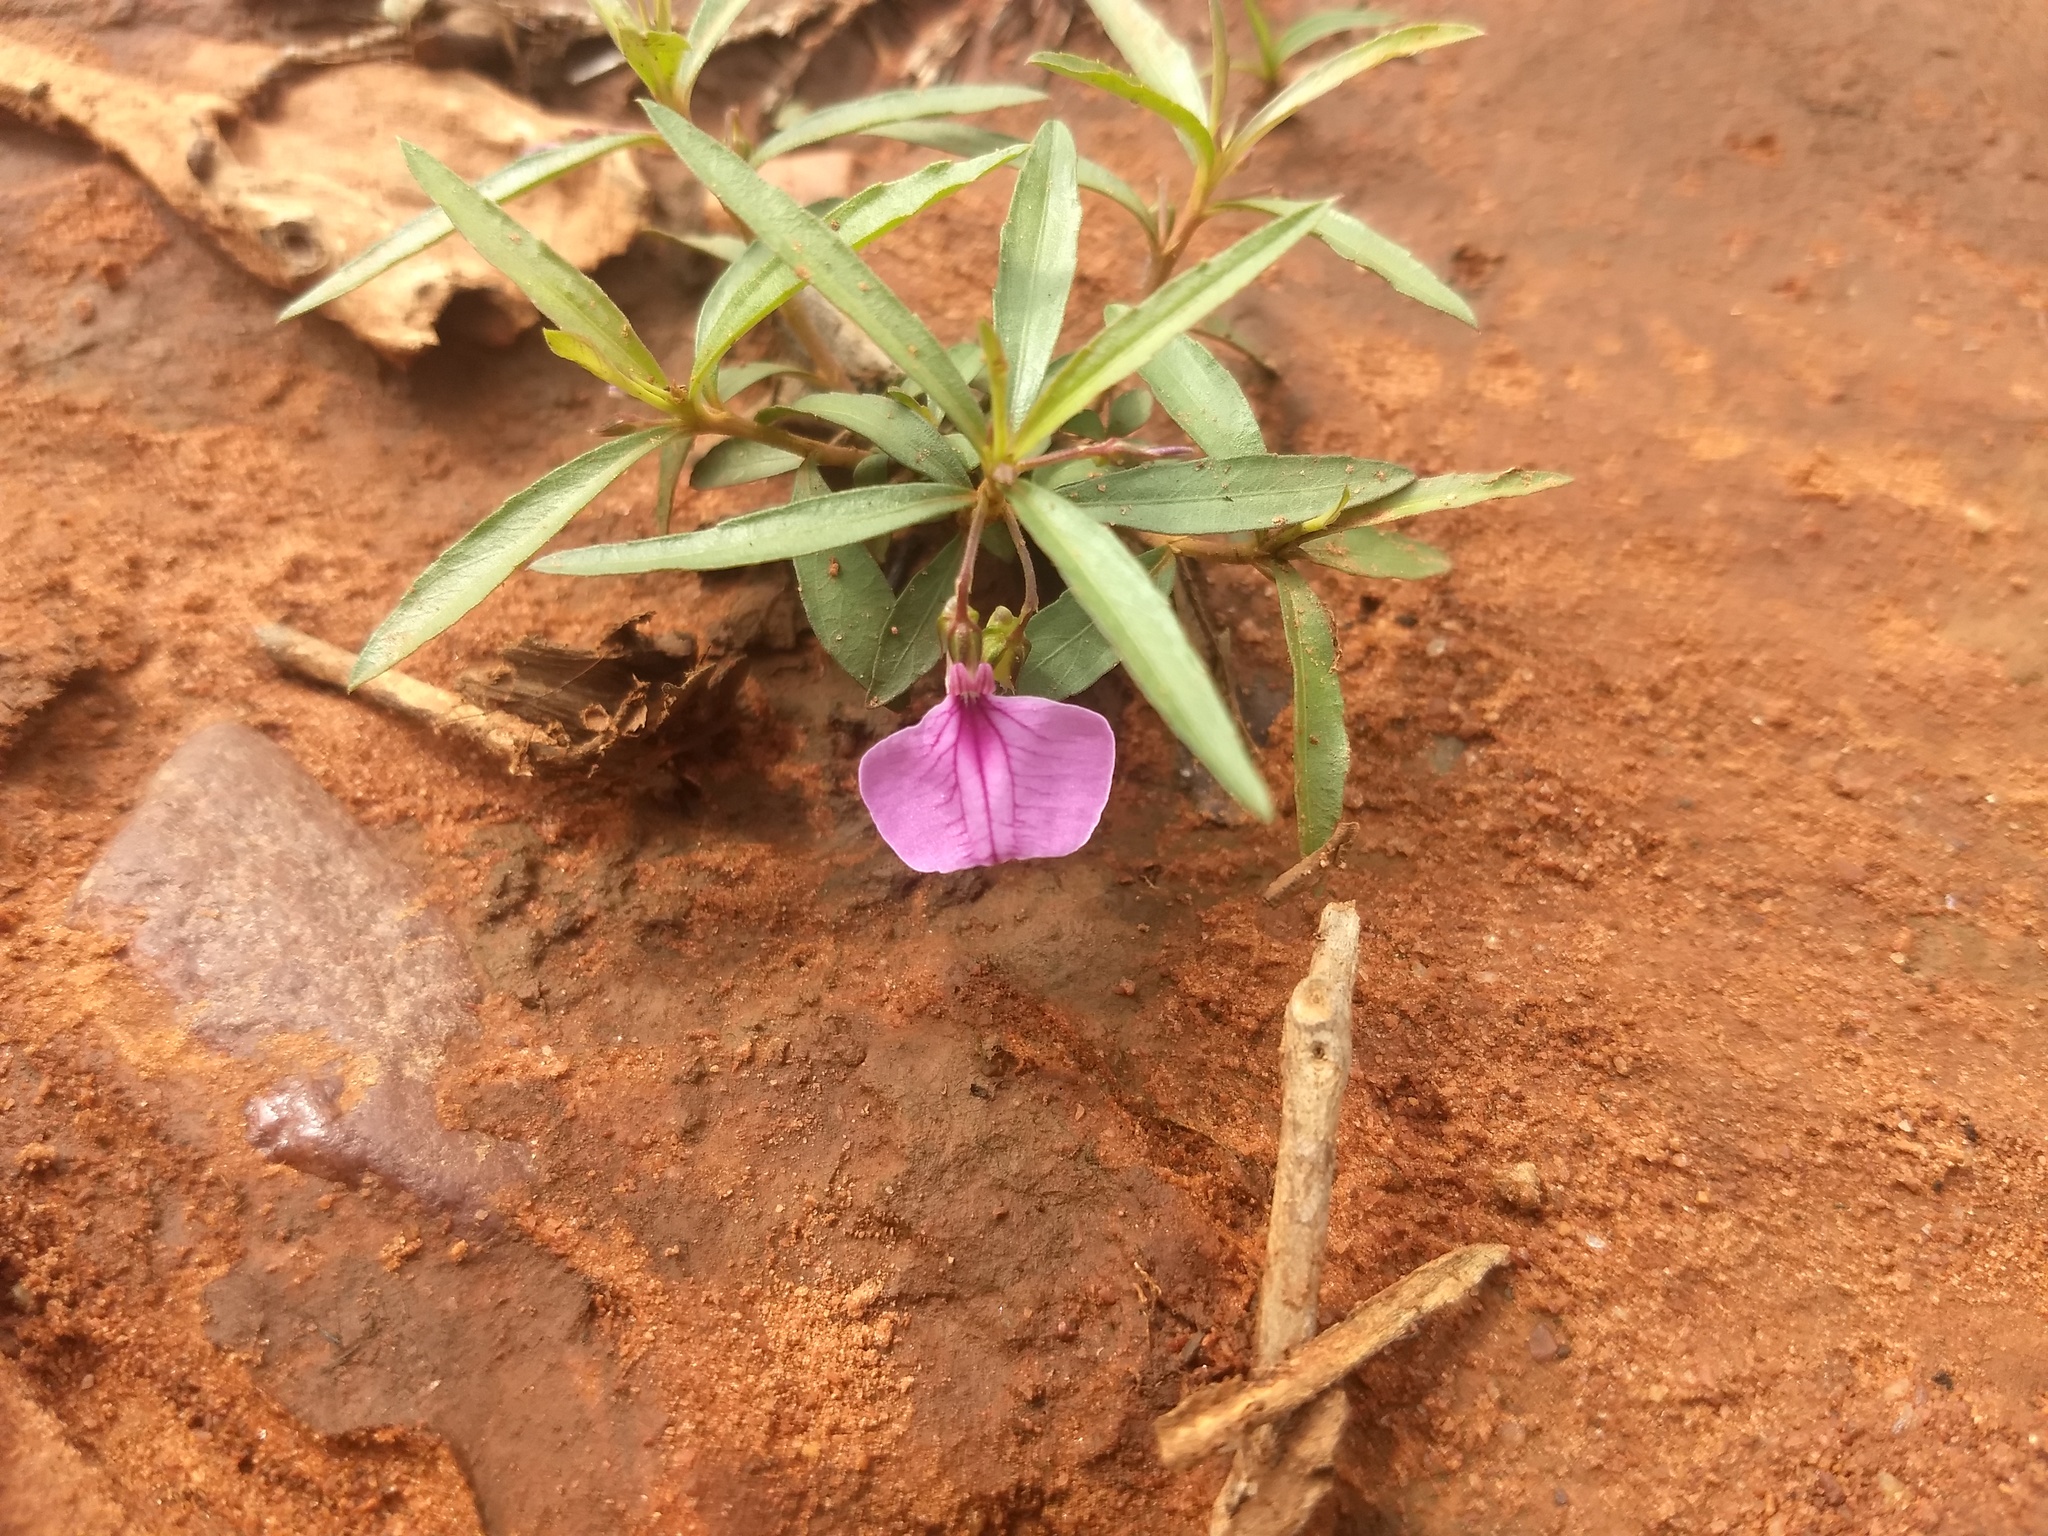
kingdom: Plantae
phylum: Tracheophyta
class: Magnoliopsida
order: Malpighiales
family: Violaceae
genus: Pigea
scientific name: Pigea enneasperma
